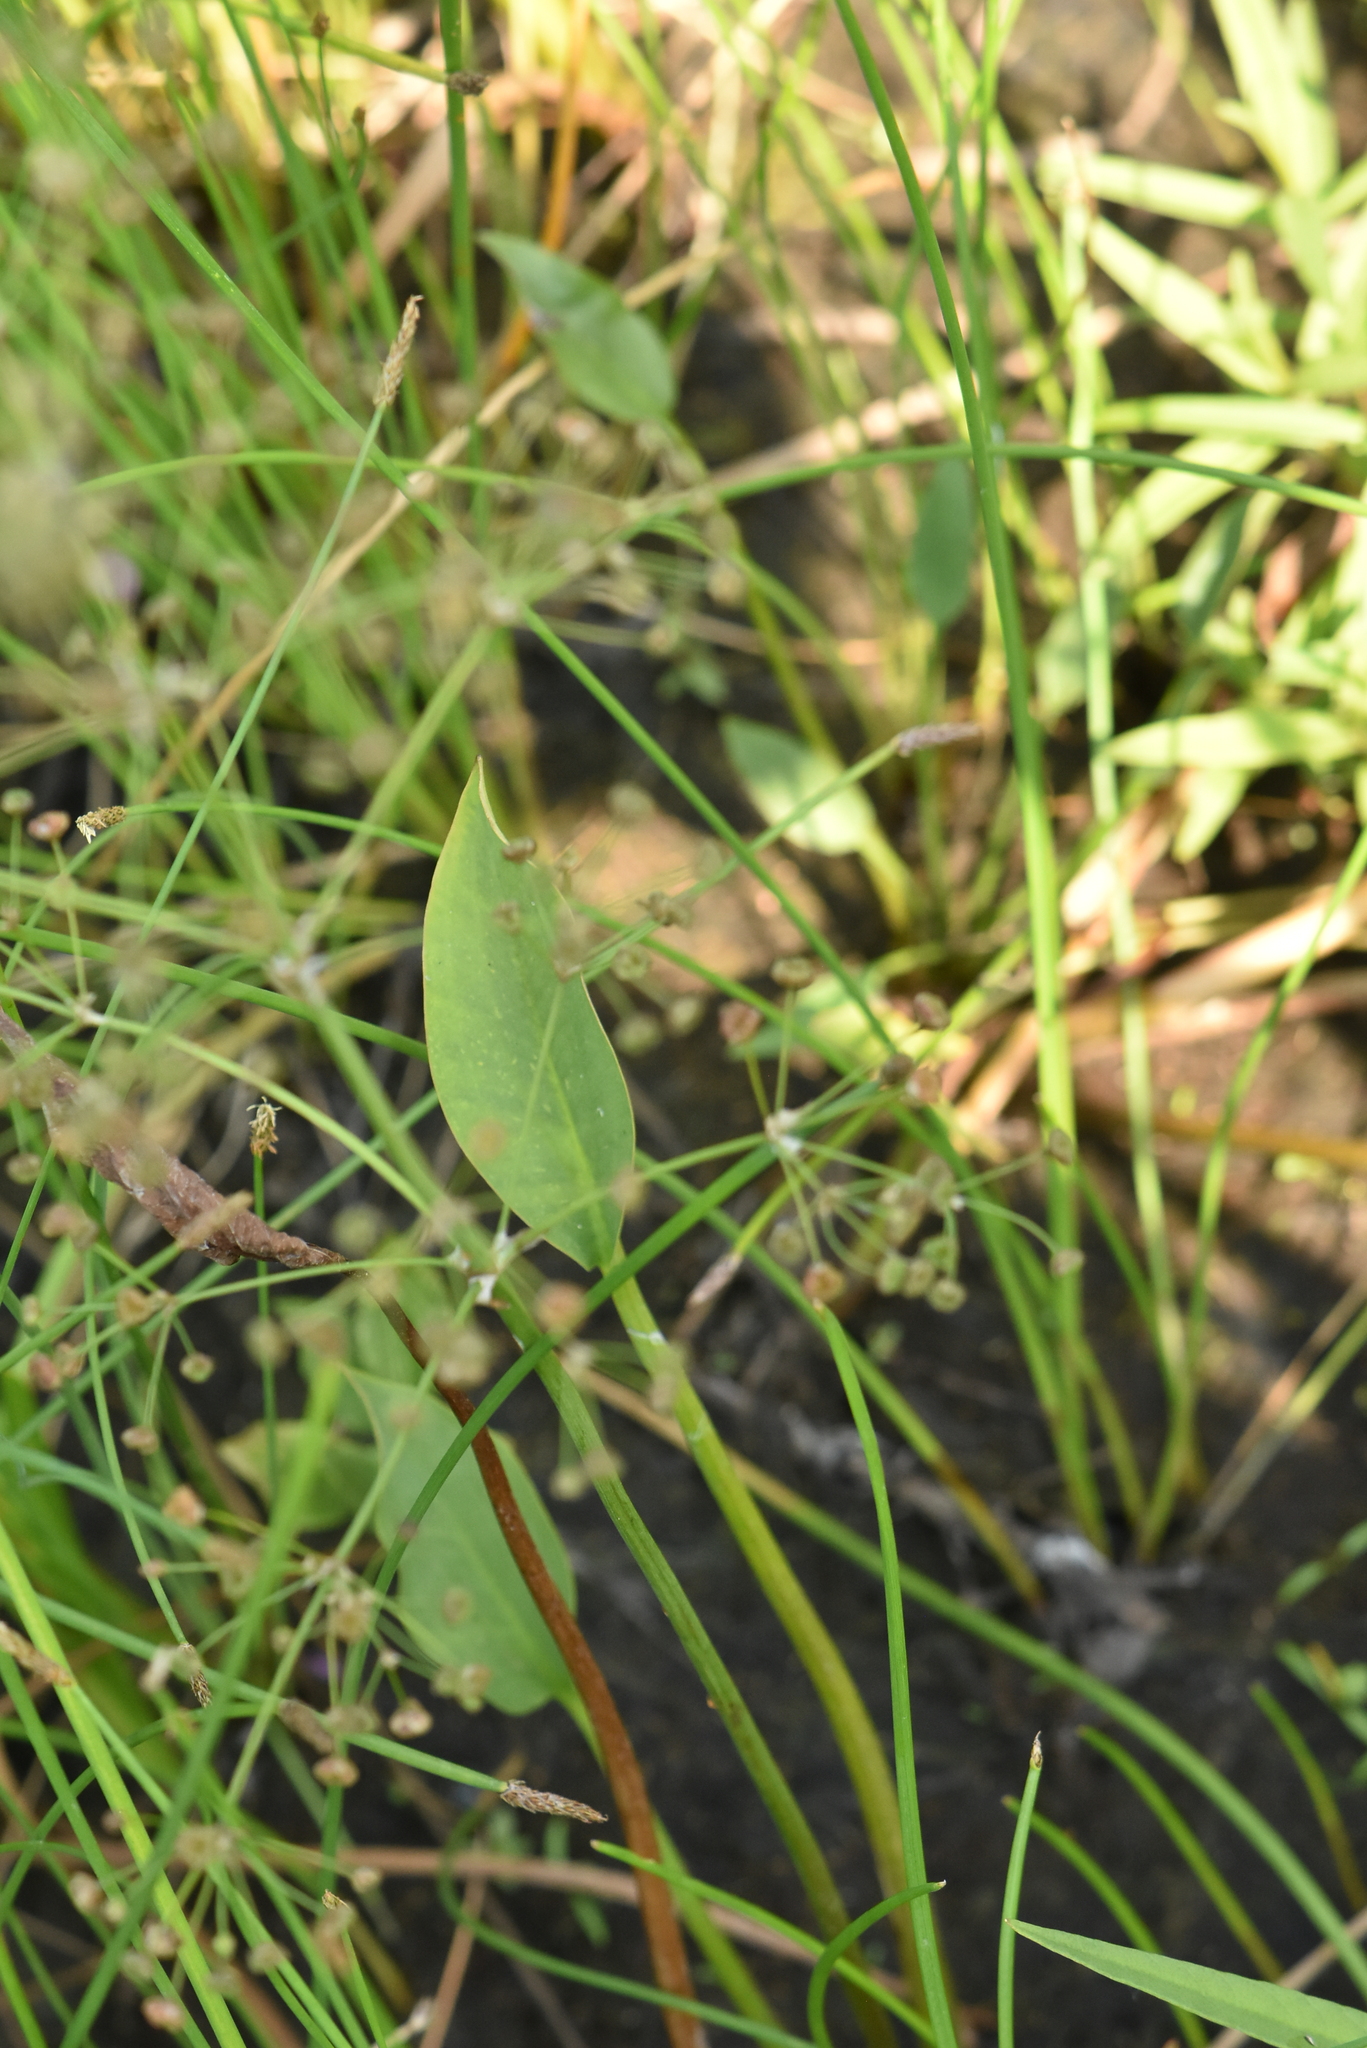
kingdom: Plantae
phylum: Tracheophyta
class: Liliopsida
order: Alismatales
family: Alismataceae
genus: Alisma
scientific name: Alisma plantago-aquatica
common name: Water-plantain
